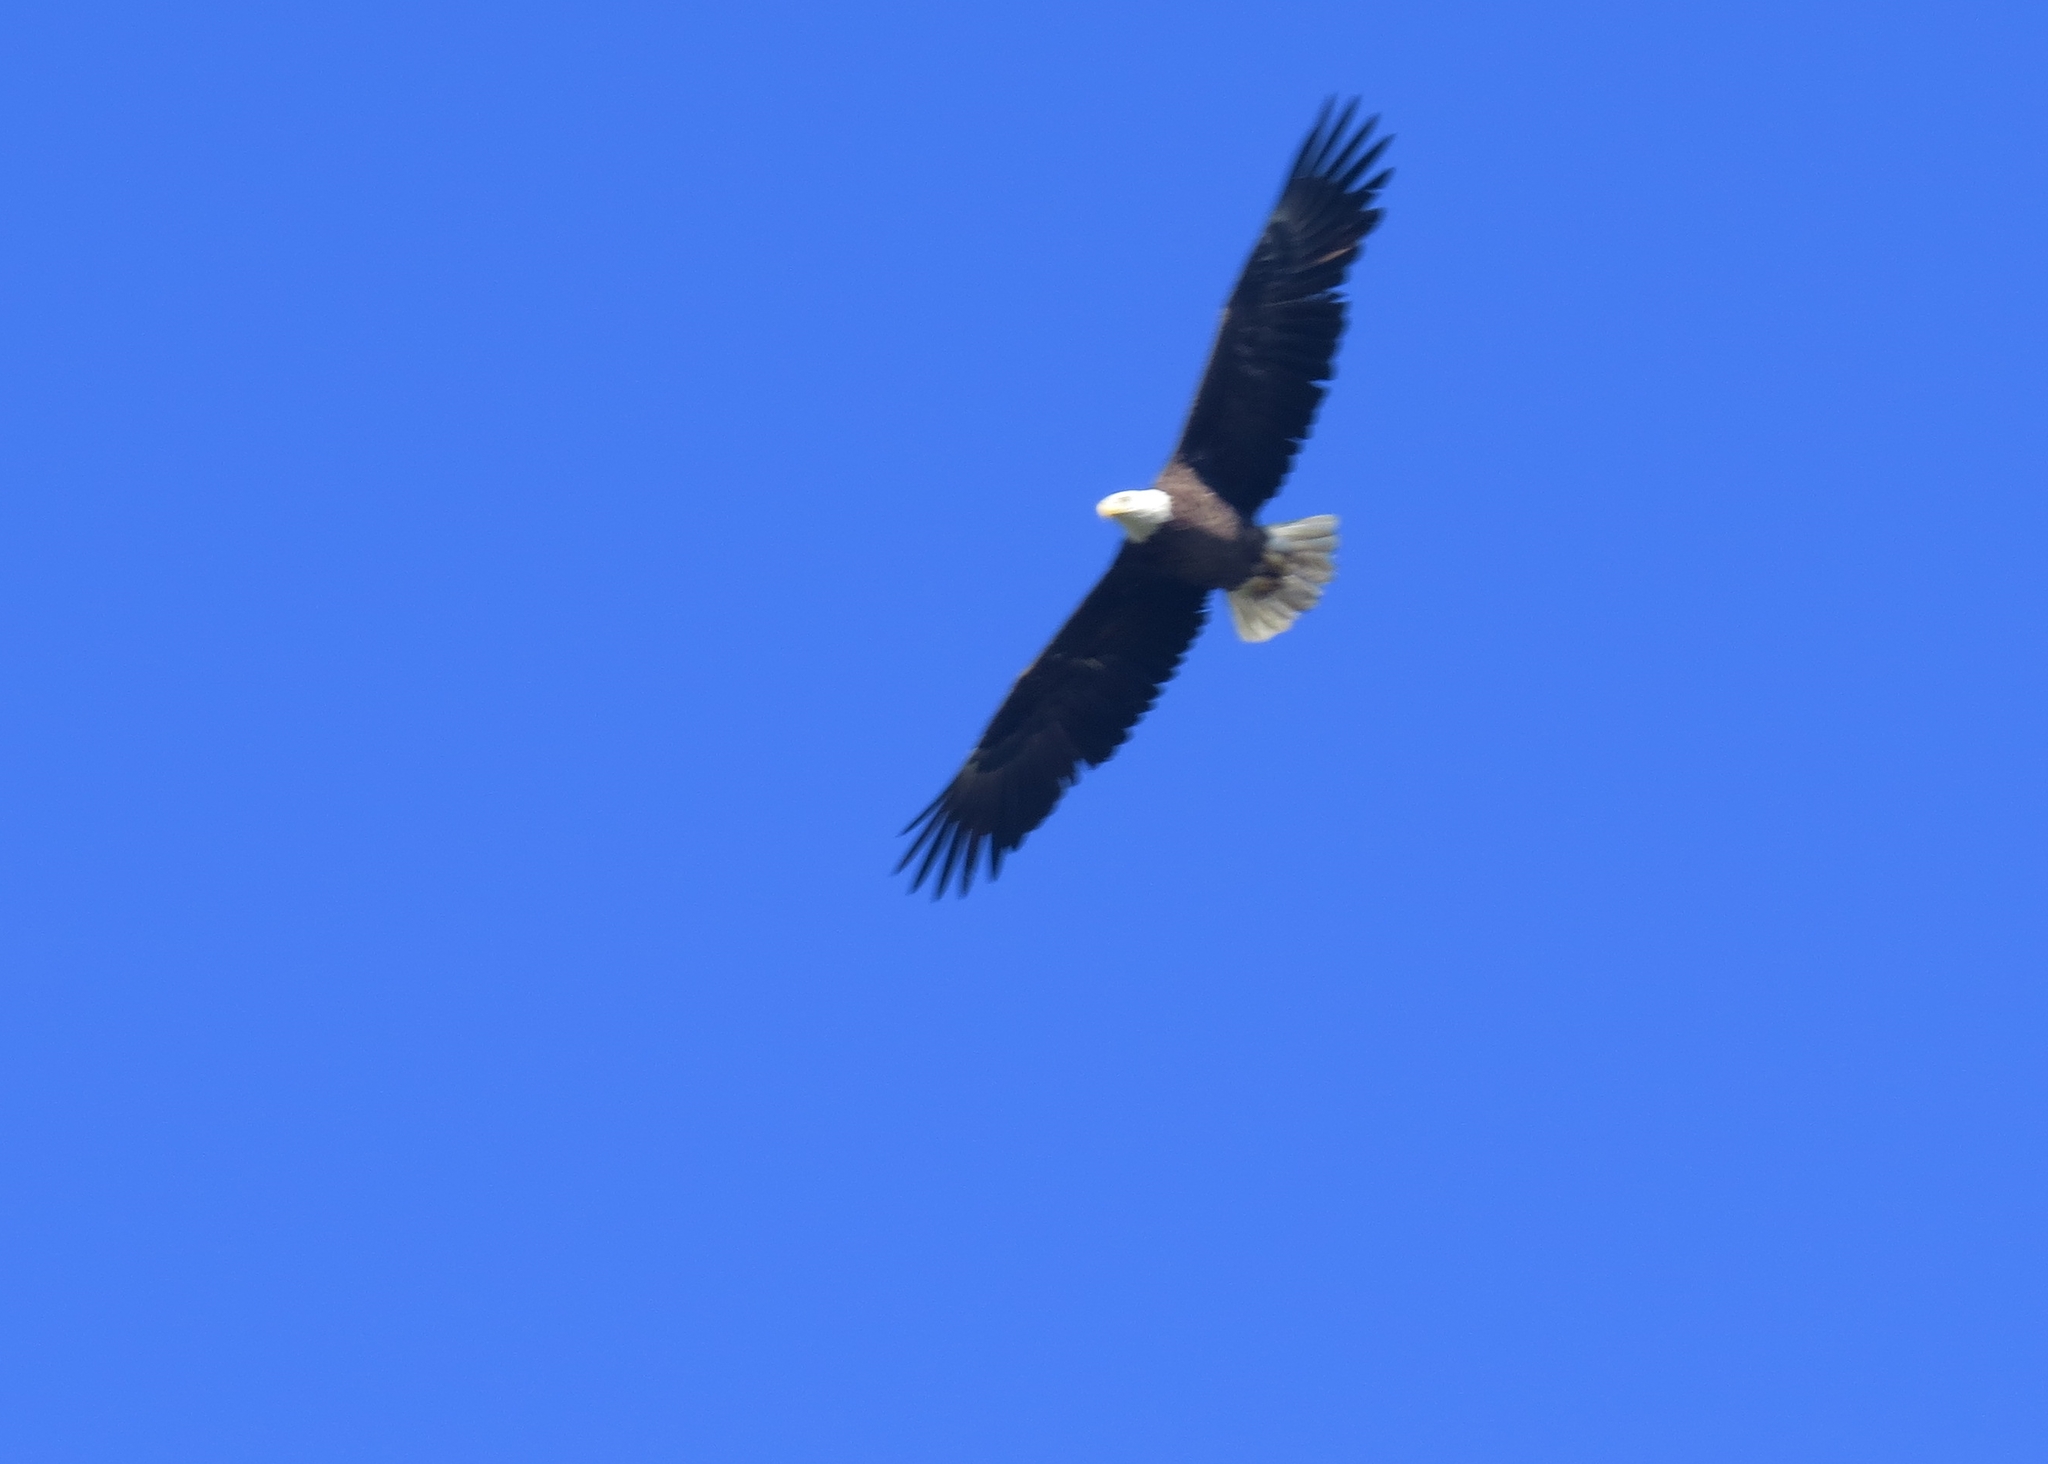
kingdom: Animalia
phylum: Chordata
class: Aves
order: Accipitriformes
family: Accipitridae
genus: Haliaeetus
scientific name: Haliaeetus leucocephalus
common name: Bald eagle
